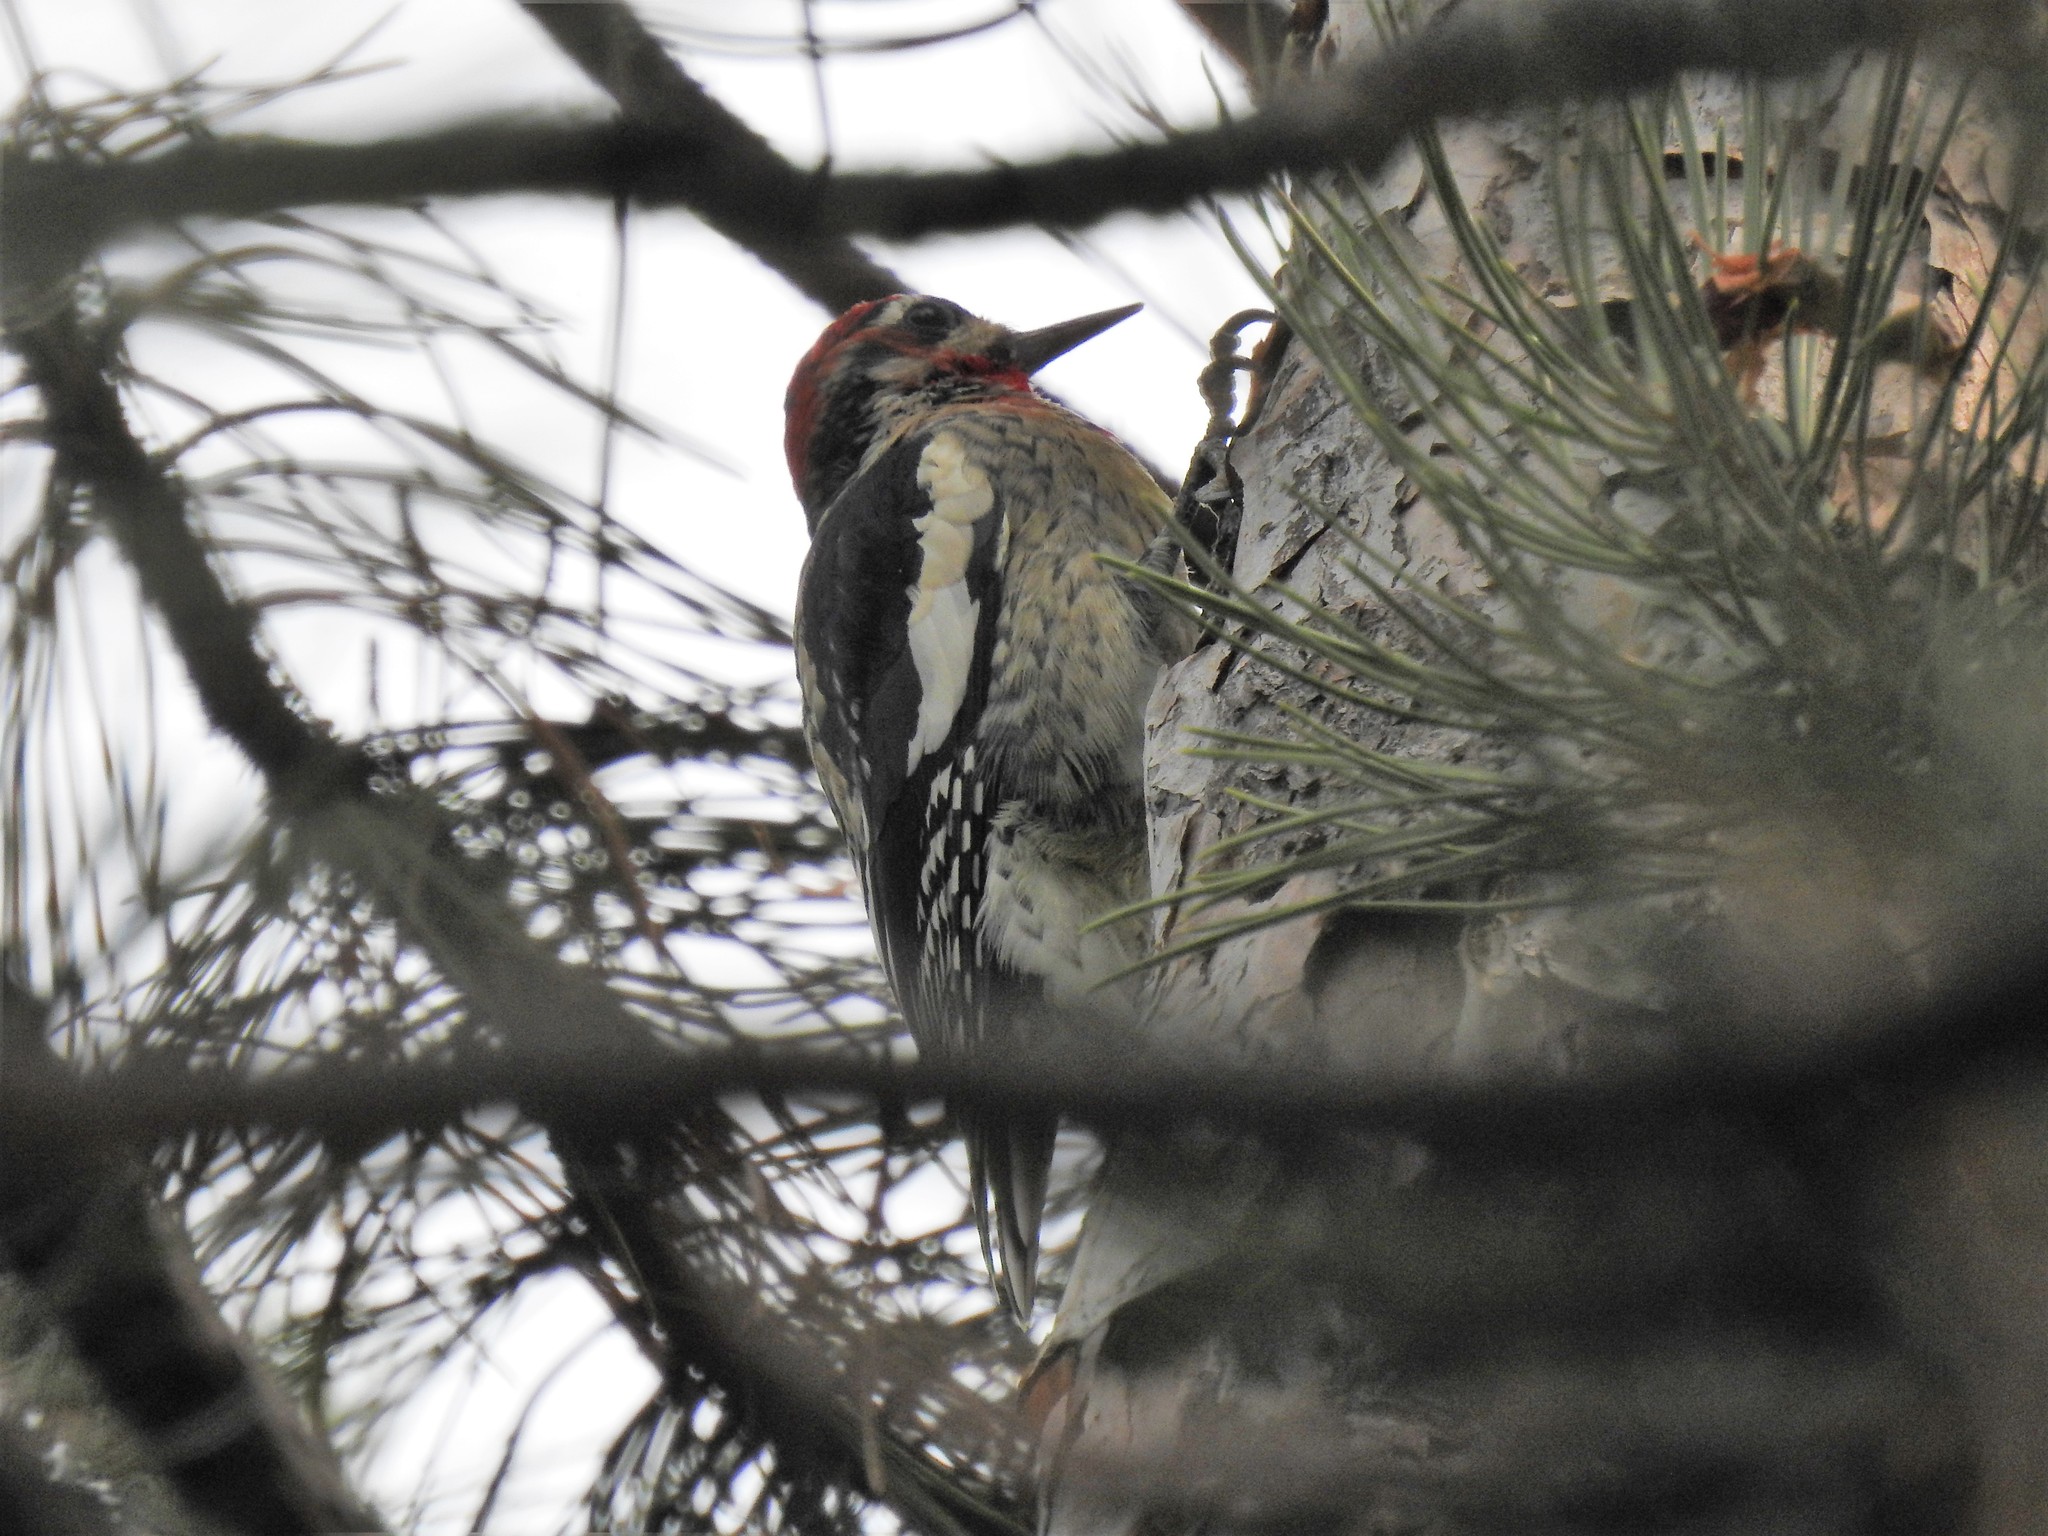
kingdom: Animalia
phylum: Chordata
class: Aves
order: Piciformes
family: Picidae
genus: Sphyrapicus
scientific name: Sphyrapicus nuchalis
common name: Red-naped sapsucker
